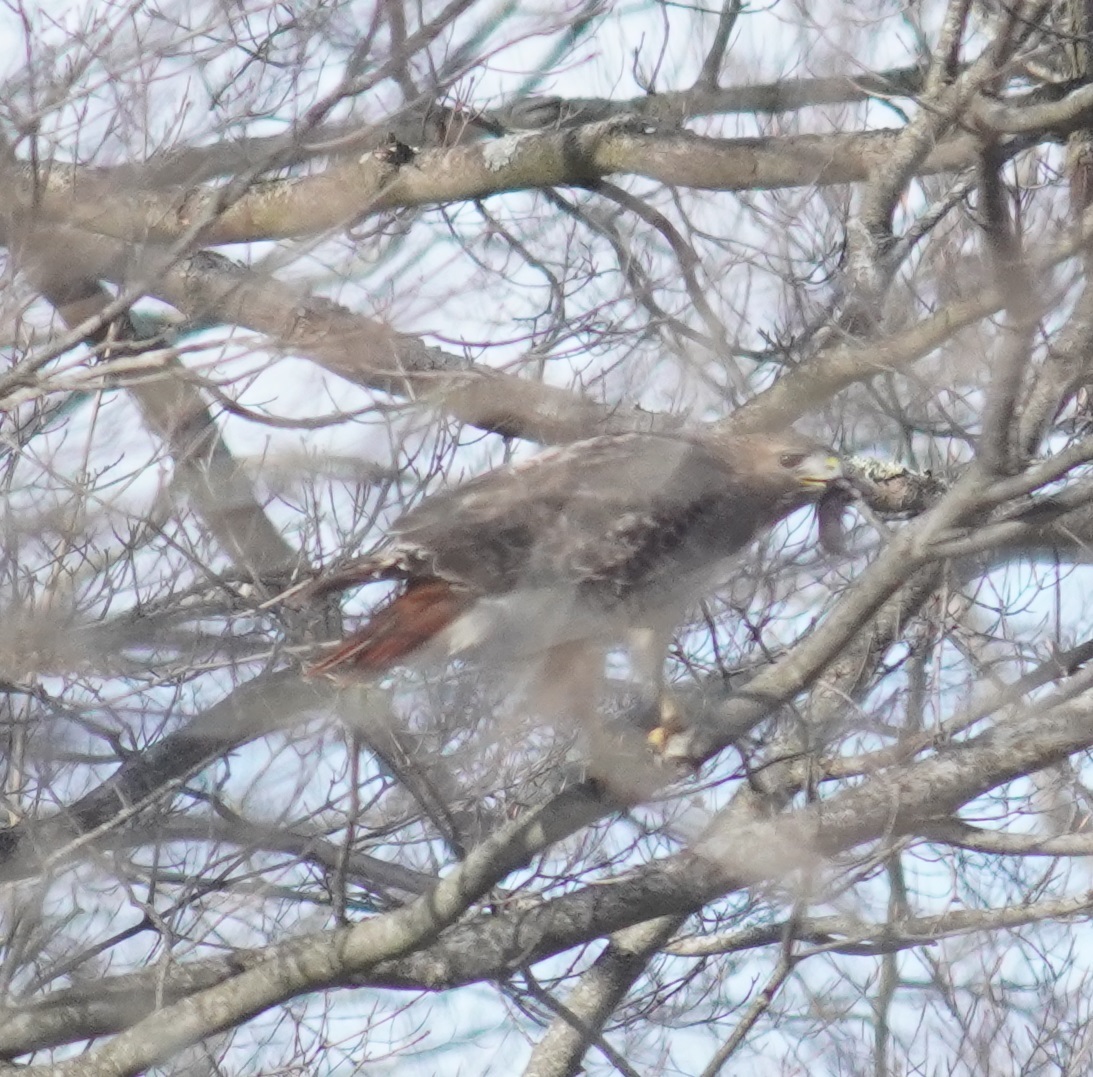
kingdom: Animalia
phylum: Chordata
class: Aves
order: Accipitriformes
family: Accipitridae
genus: Buteo
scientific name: Buteo jamaicensis
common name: Red-tailed hawk
